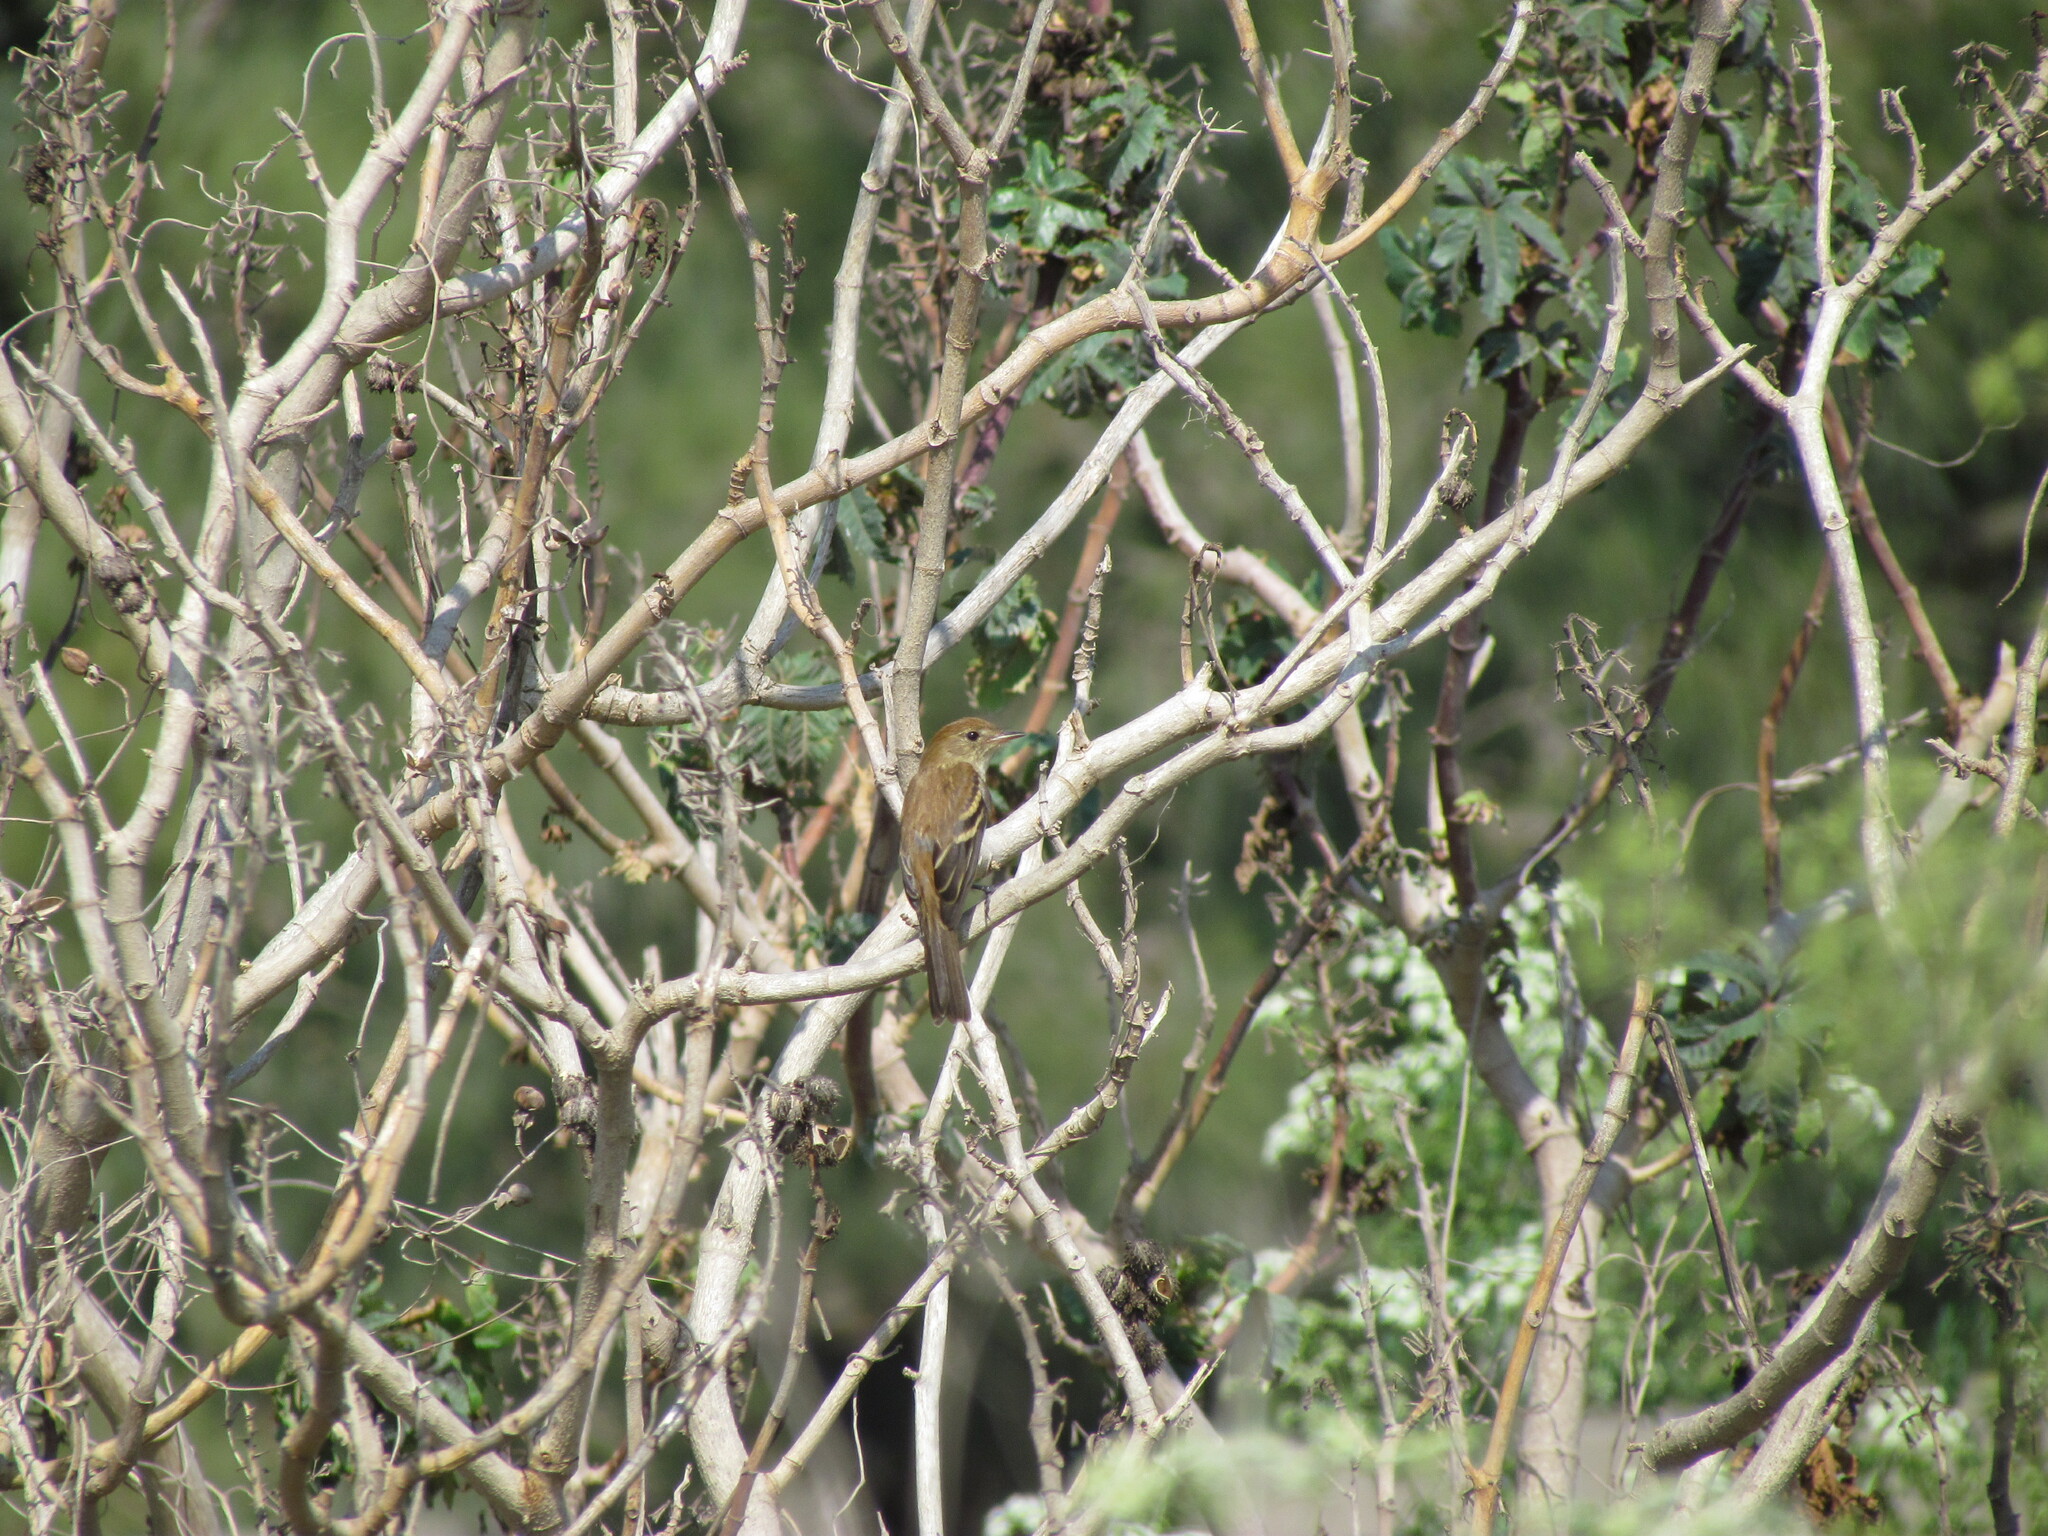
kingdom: Animalia
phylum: Chordata
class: Aves
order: Passeriformes
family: Tyrannidae
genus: Myiophobus
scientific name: Myiophobus fasciatus
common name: Bran-colored flycatcher
